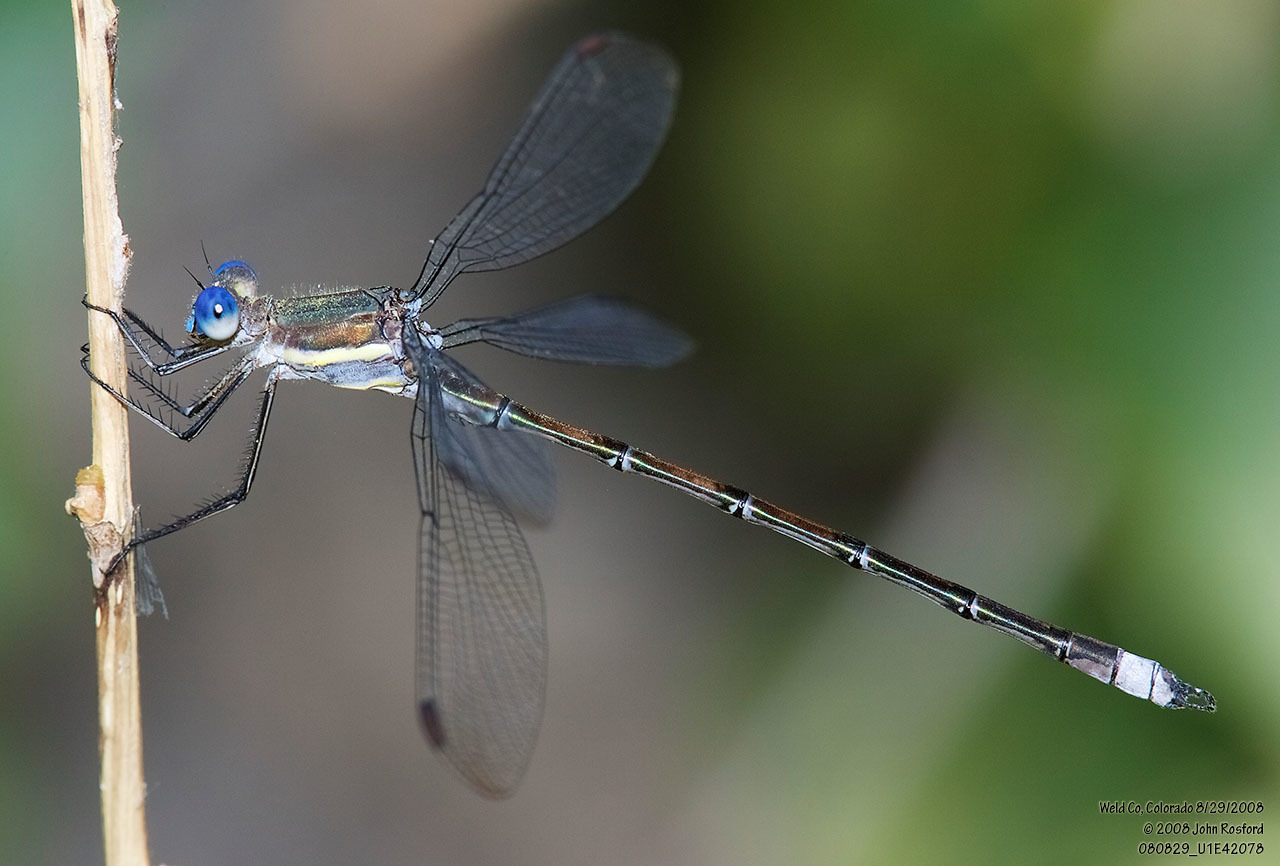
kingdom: Animalia
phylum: Arthropoda
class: Insecta
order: Odonata
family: Lestidae
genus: Archilestes
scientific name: Archilestes grandis
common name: Great spreadwing
